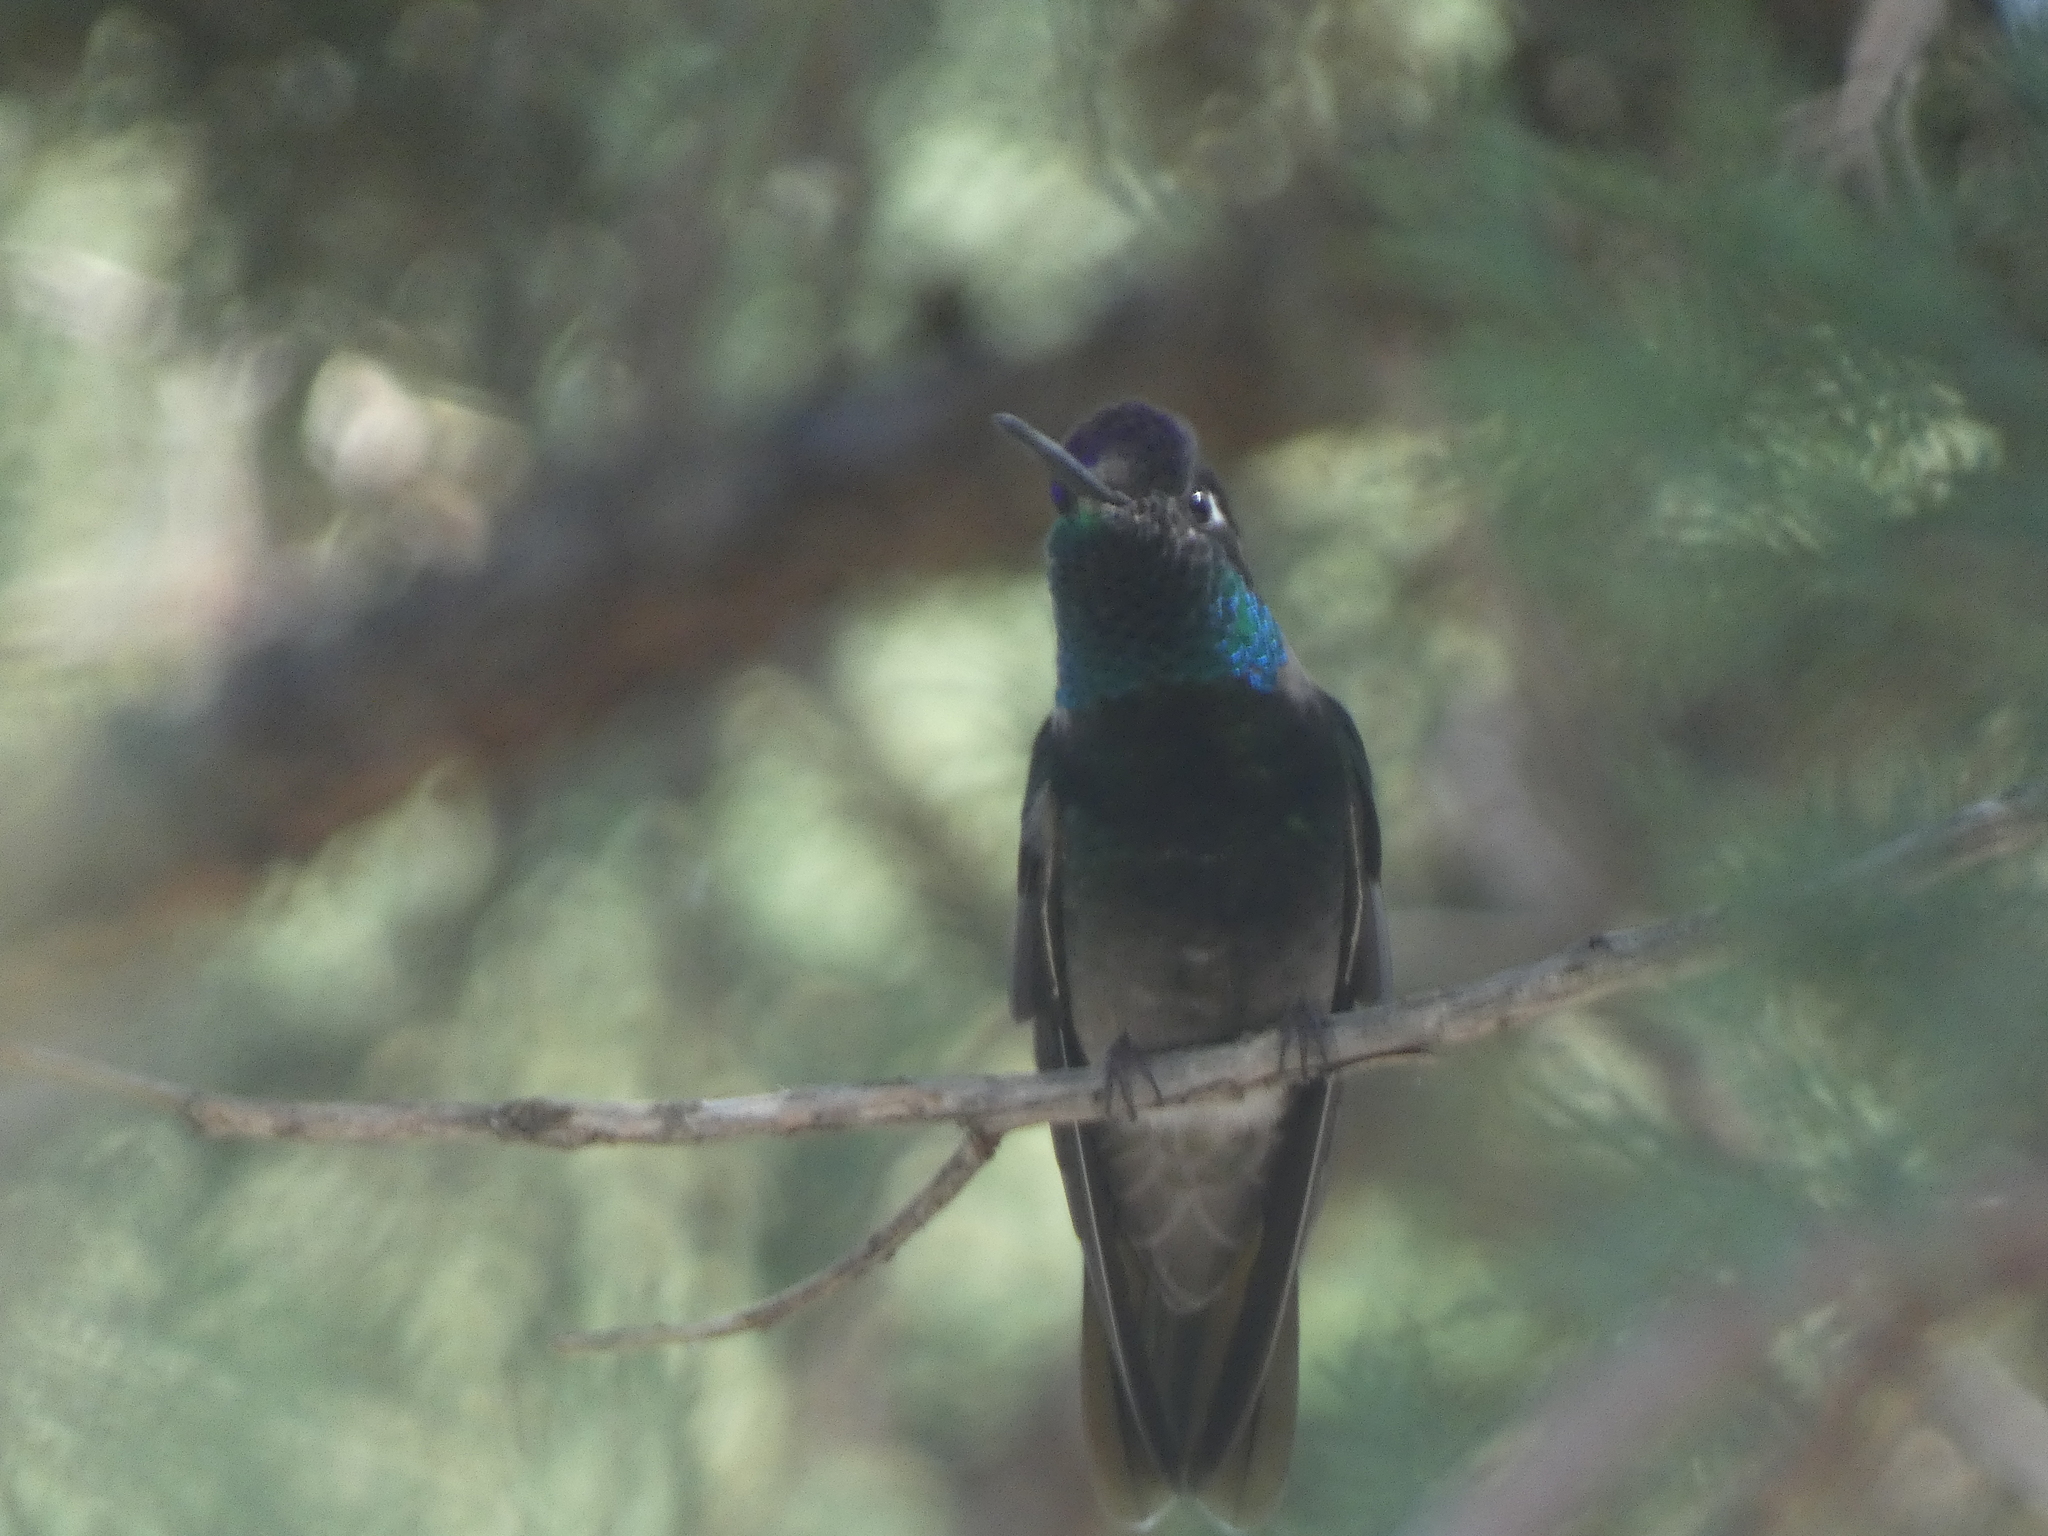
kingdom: Animalia
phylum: Chordata
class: Aves
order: Apodiformes
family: Trochilidae
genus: Eugenes
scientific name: Eugenes fulgens
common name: Magnificent hummingbird
